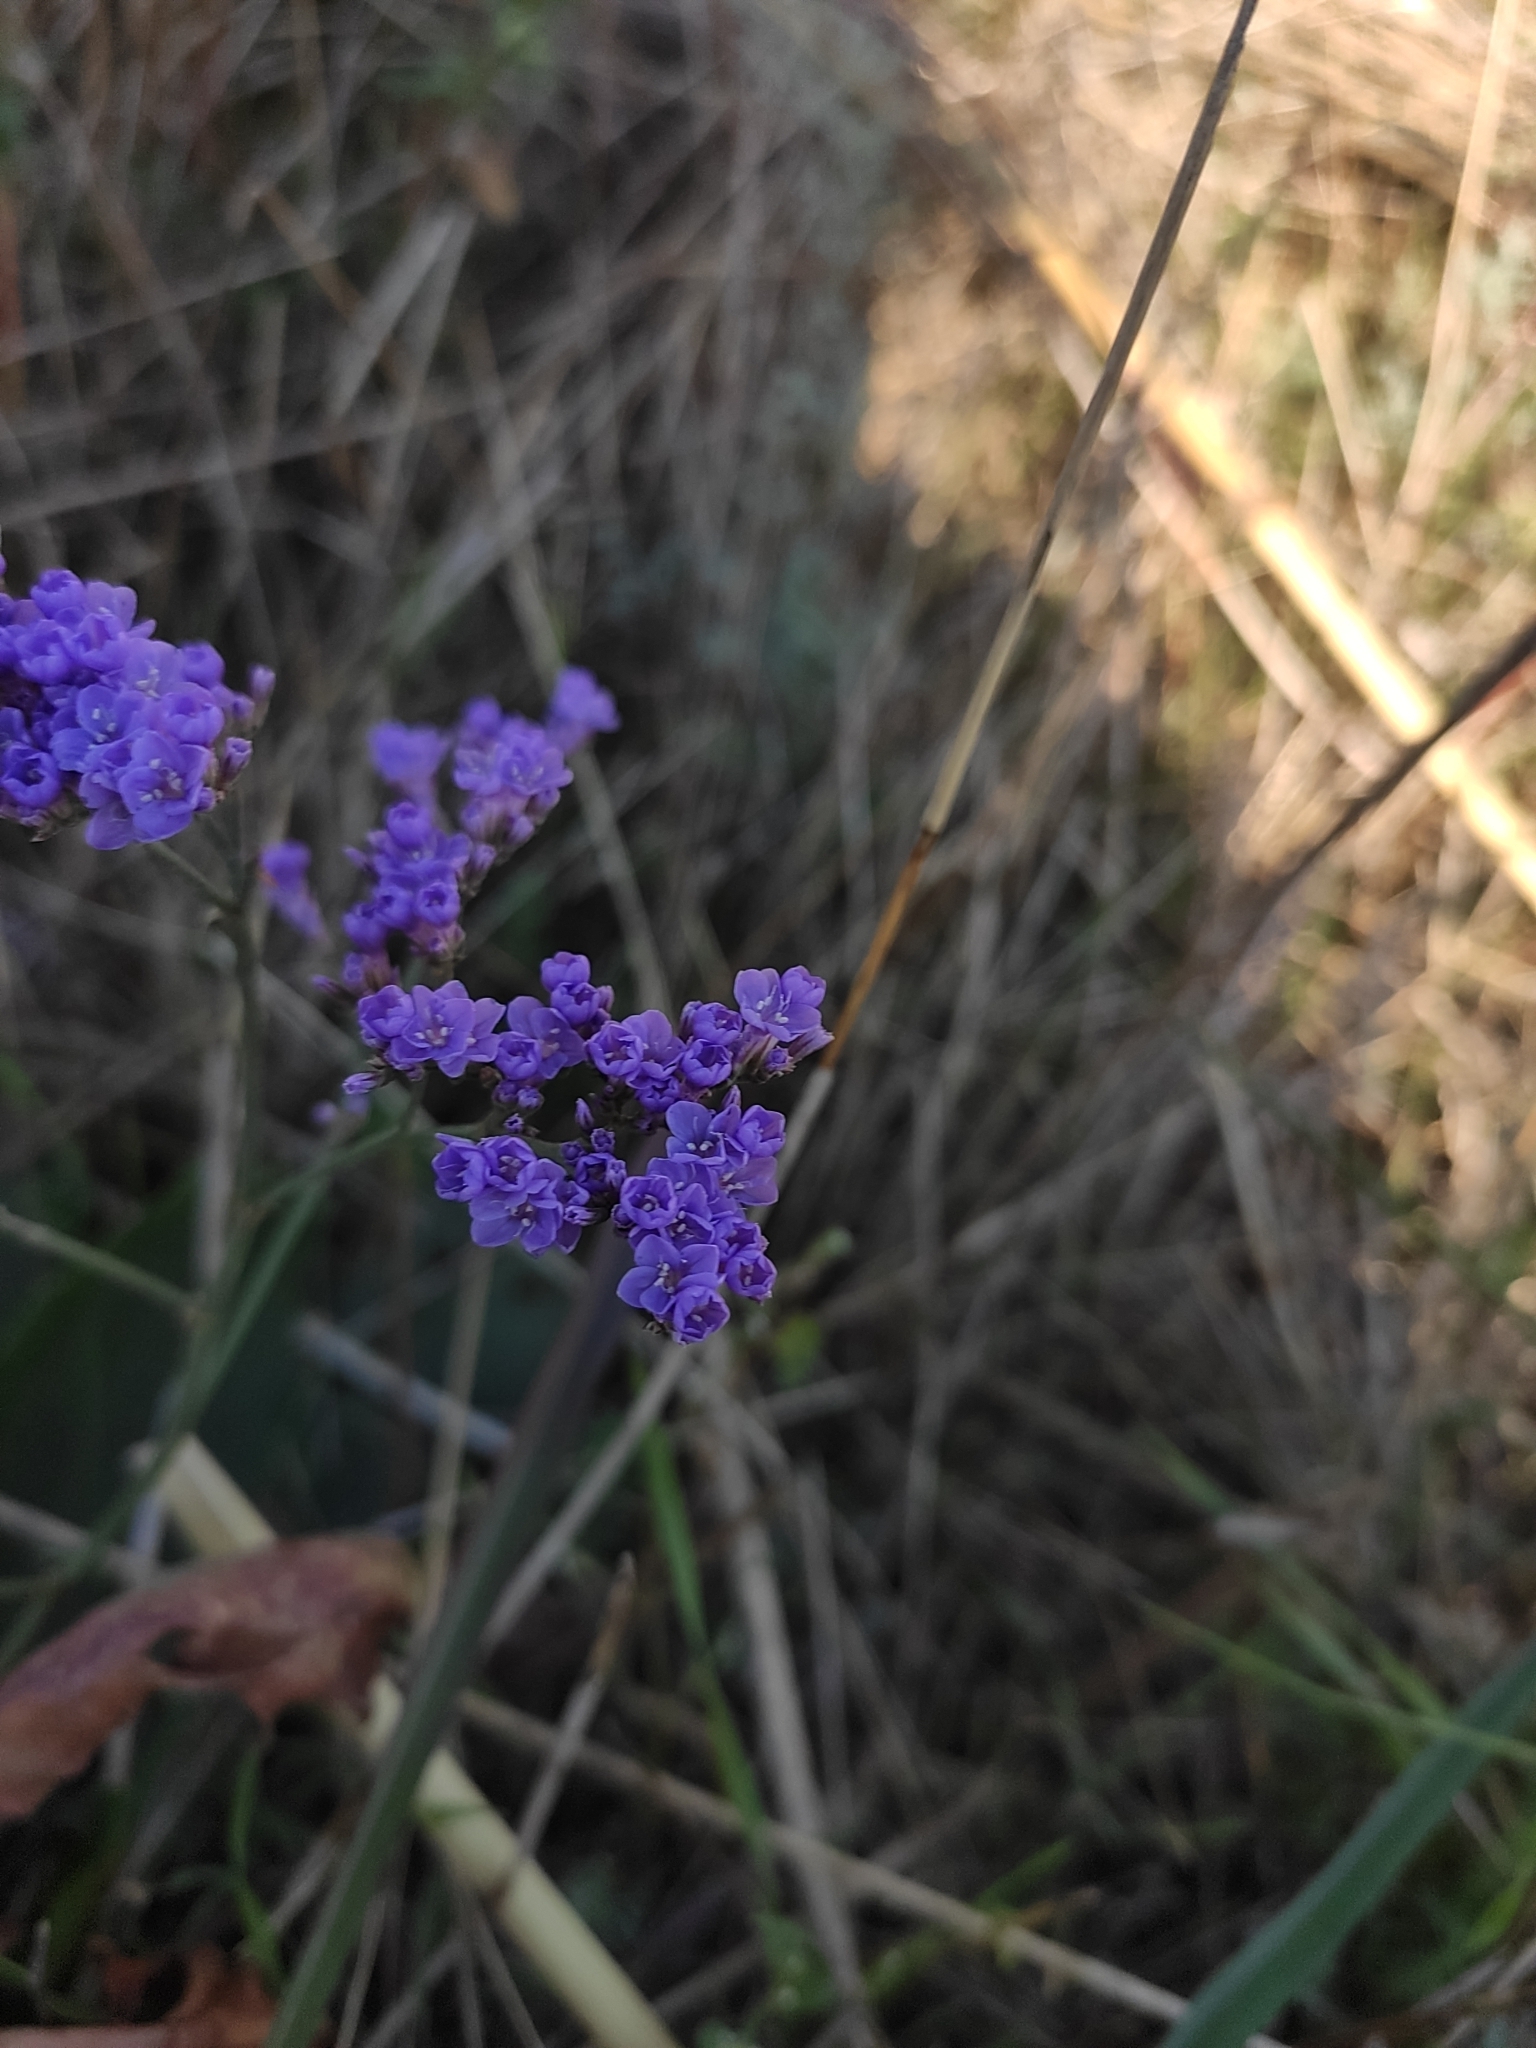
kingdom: Plantae
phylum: Tracheophyta
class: Magnoliopsida
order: Caryophyllales
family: Plumbaginaceae
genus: Limonium
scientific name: Limonium gmelini
